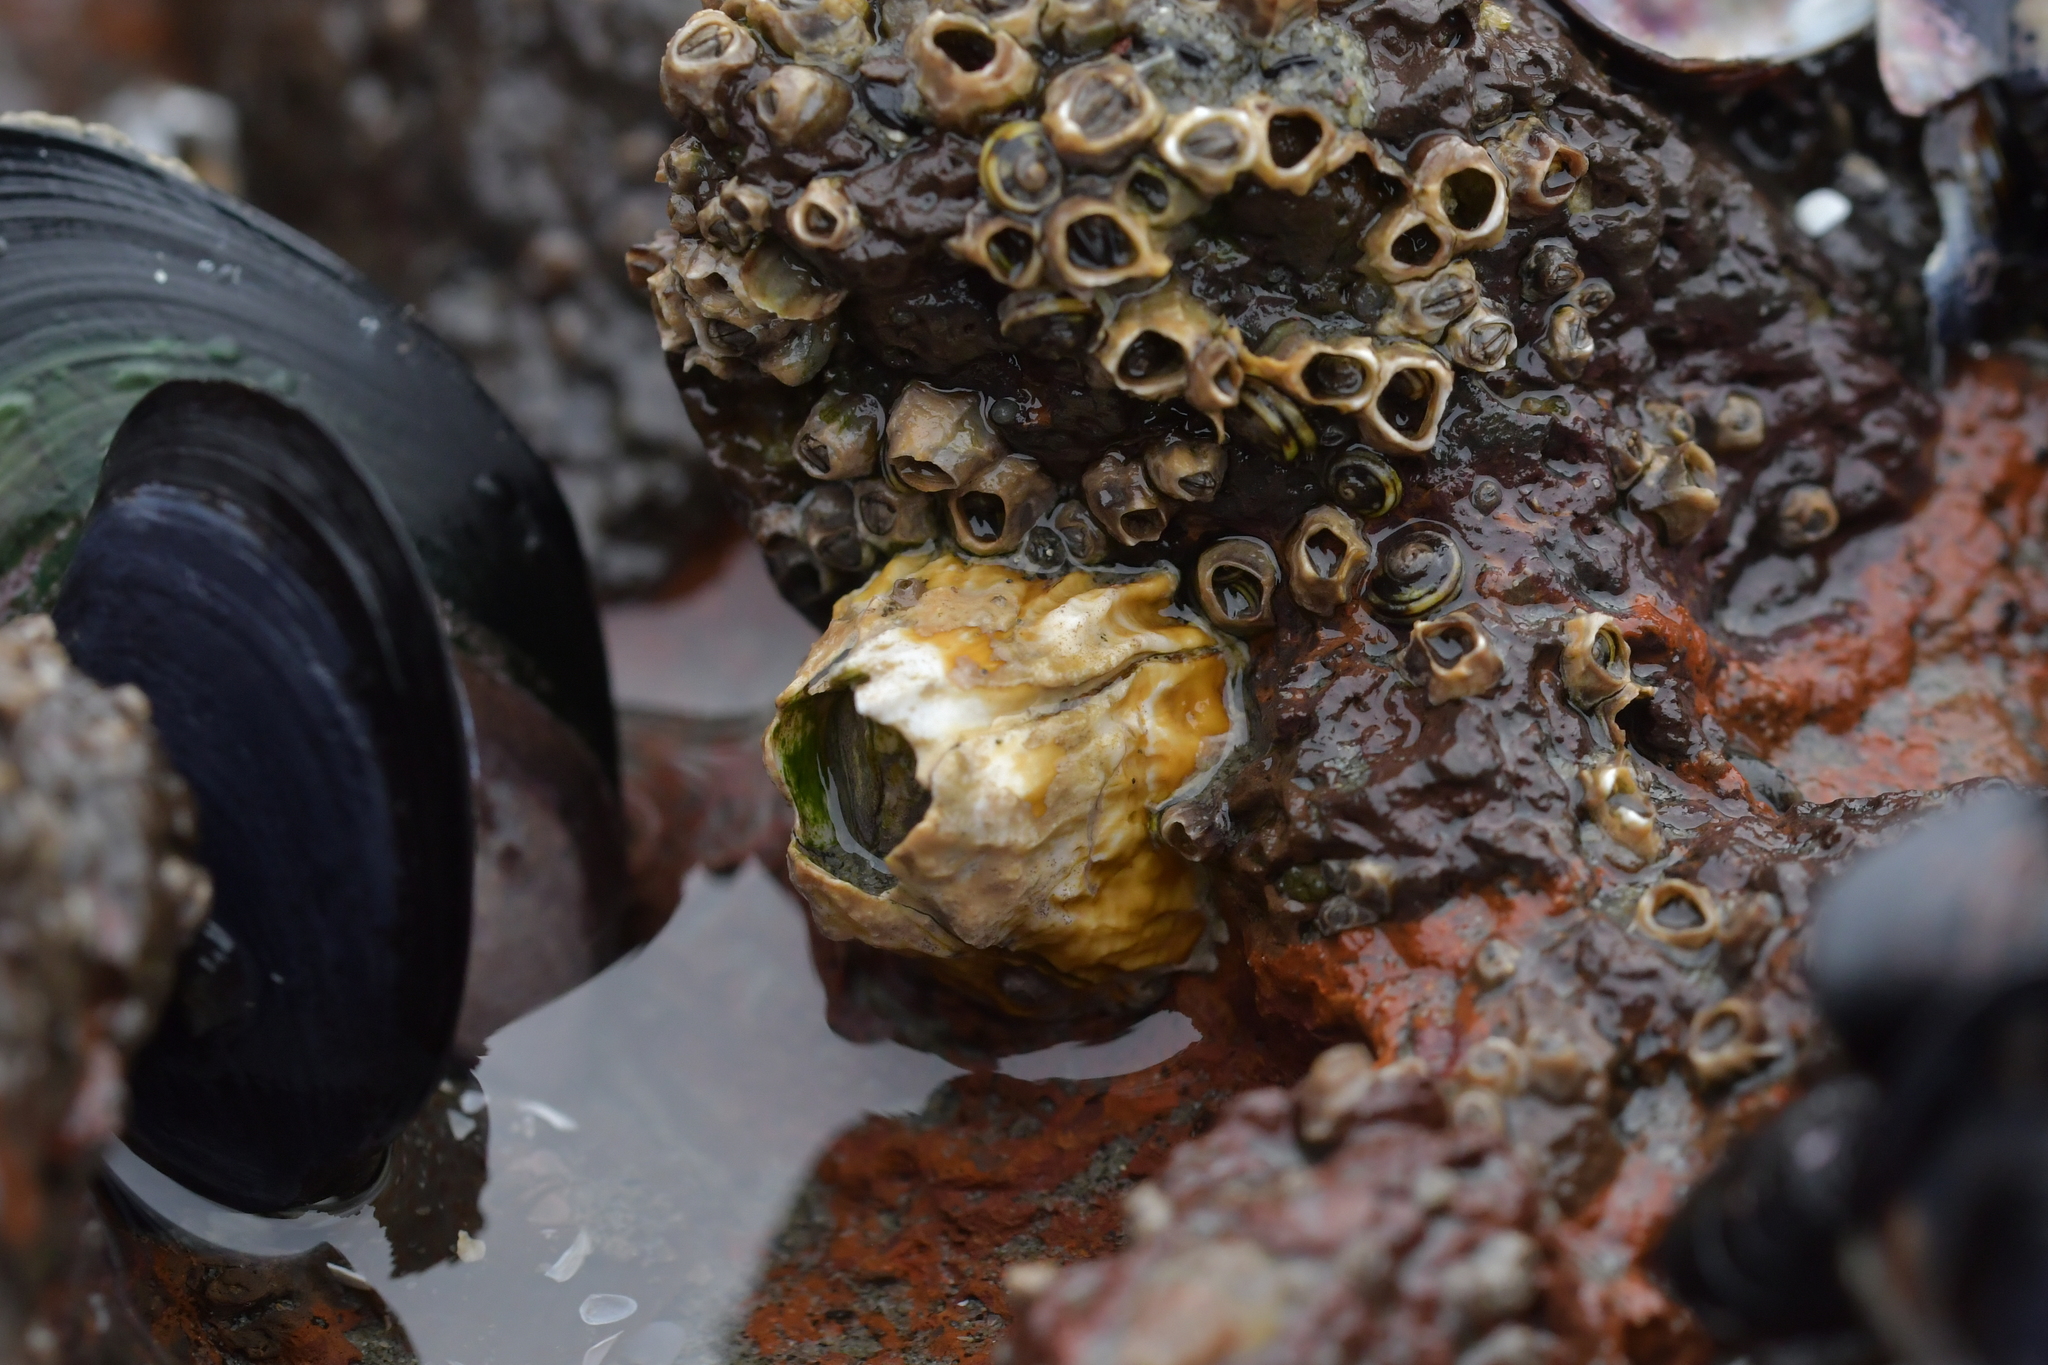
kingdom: Animalia
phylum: Arthropoda
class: Maxillopoda
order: Sessilia
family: Tetraclitidae
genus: Epopella
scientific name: Epopella plicata
